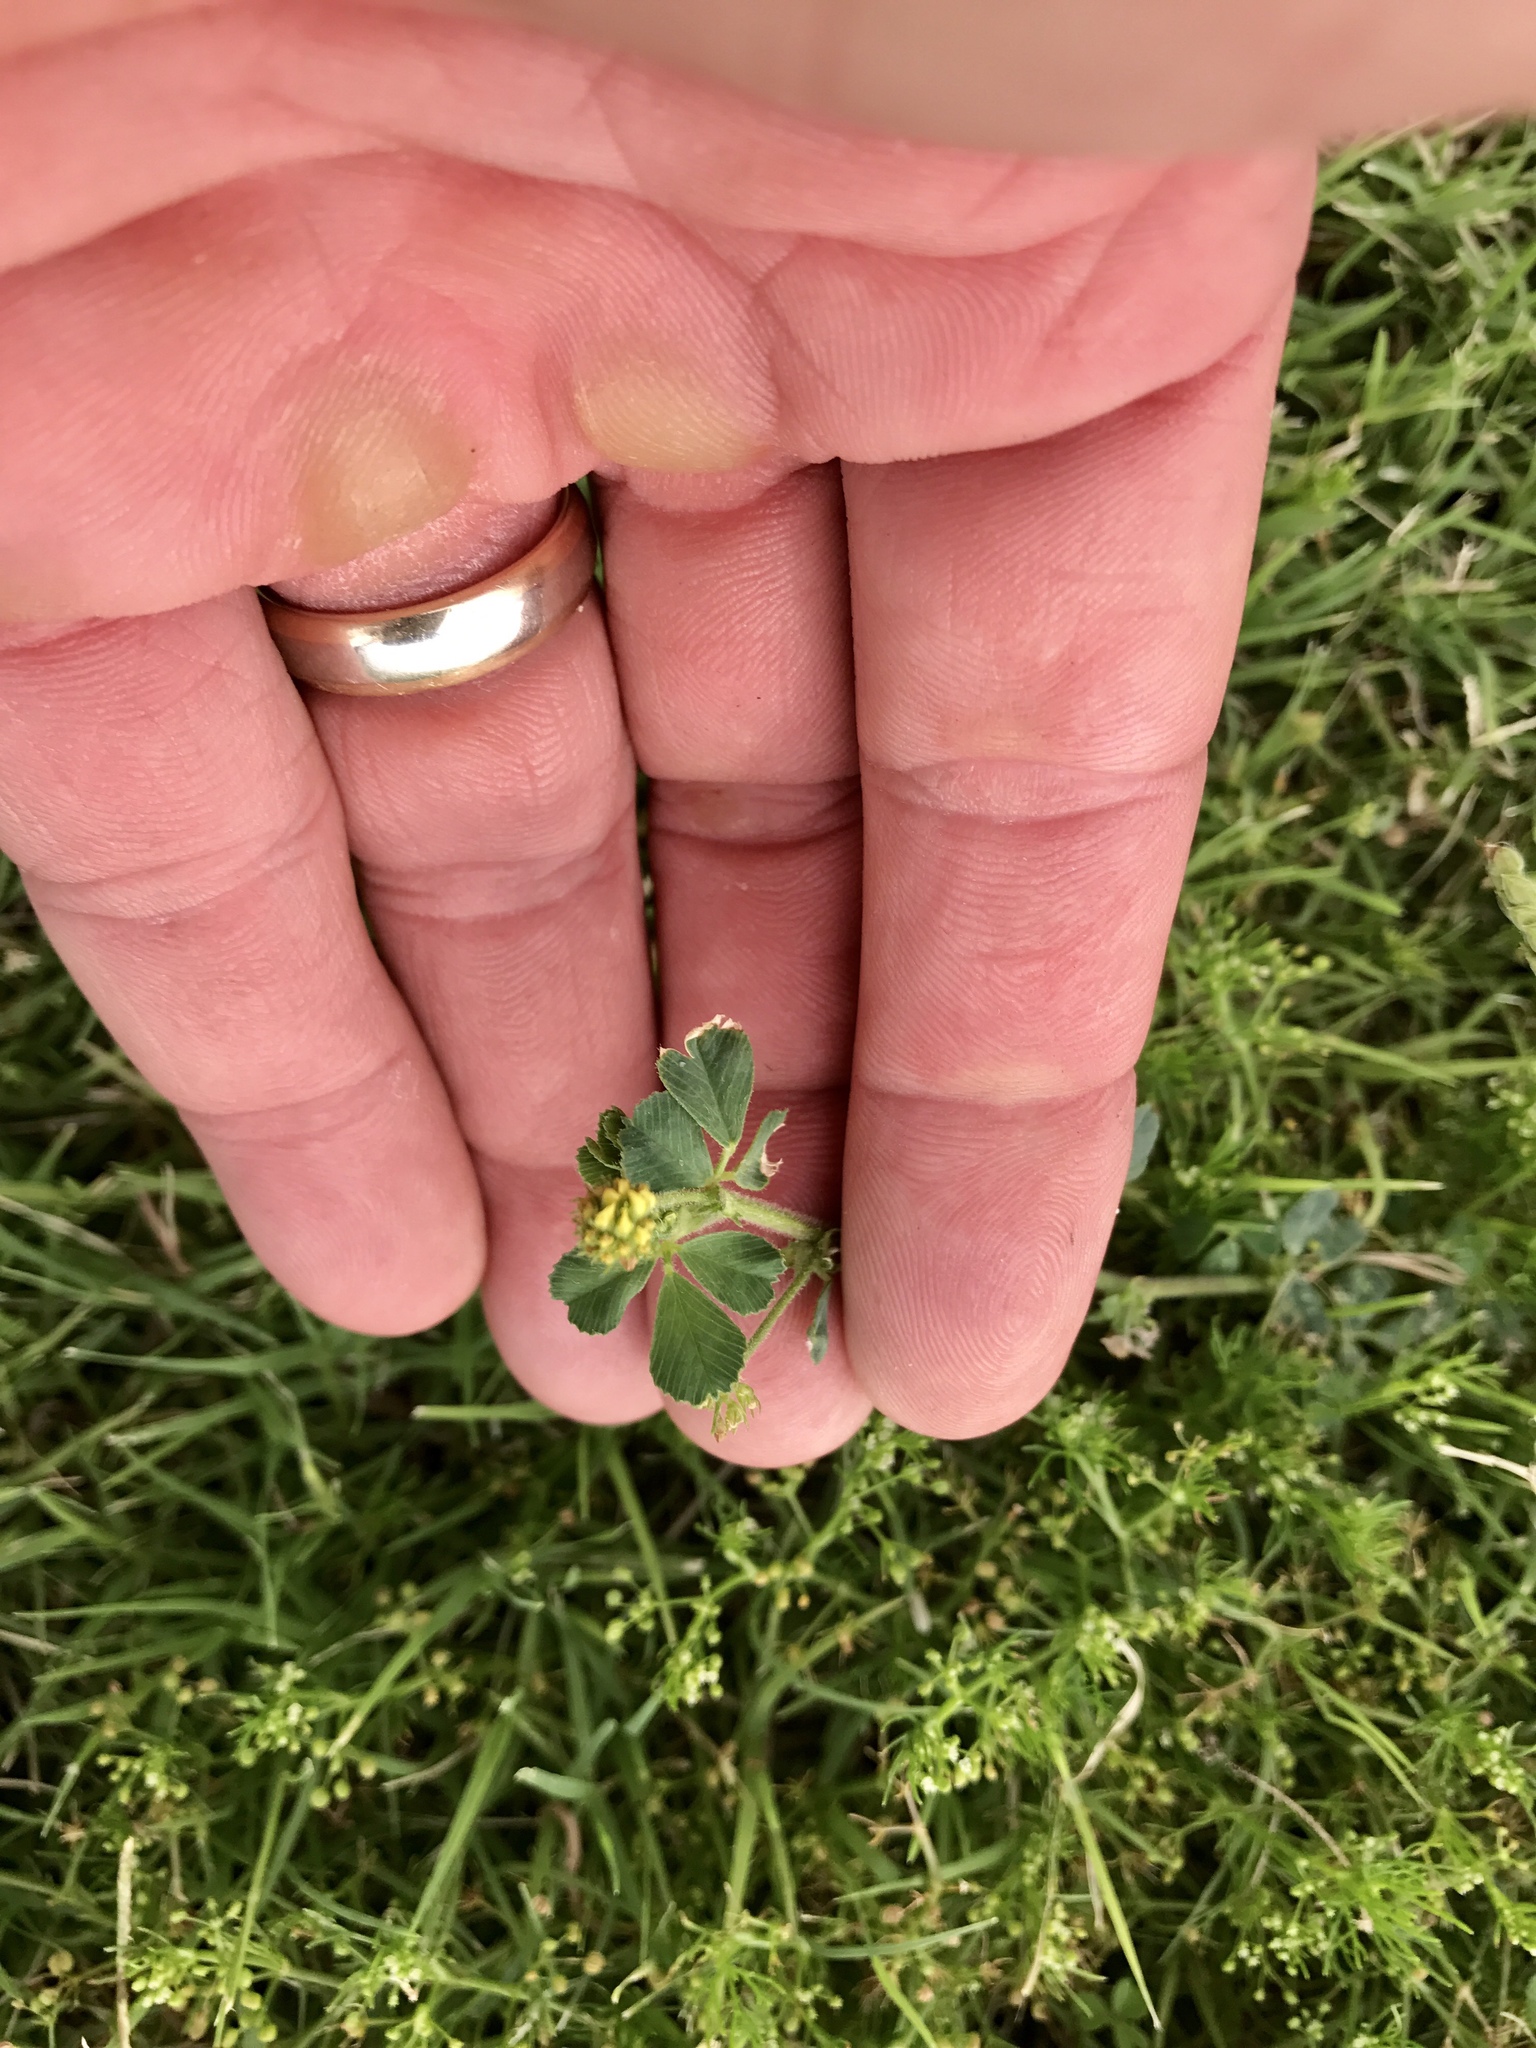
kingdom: Plantae
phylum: Tracheophyta
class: Magnoliopsida
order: Fabales
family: Fabaceae
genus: Medicago
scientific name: Medicago lupulina
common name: Black medick
